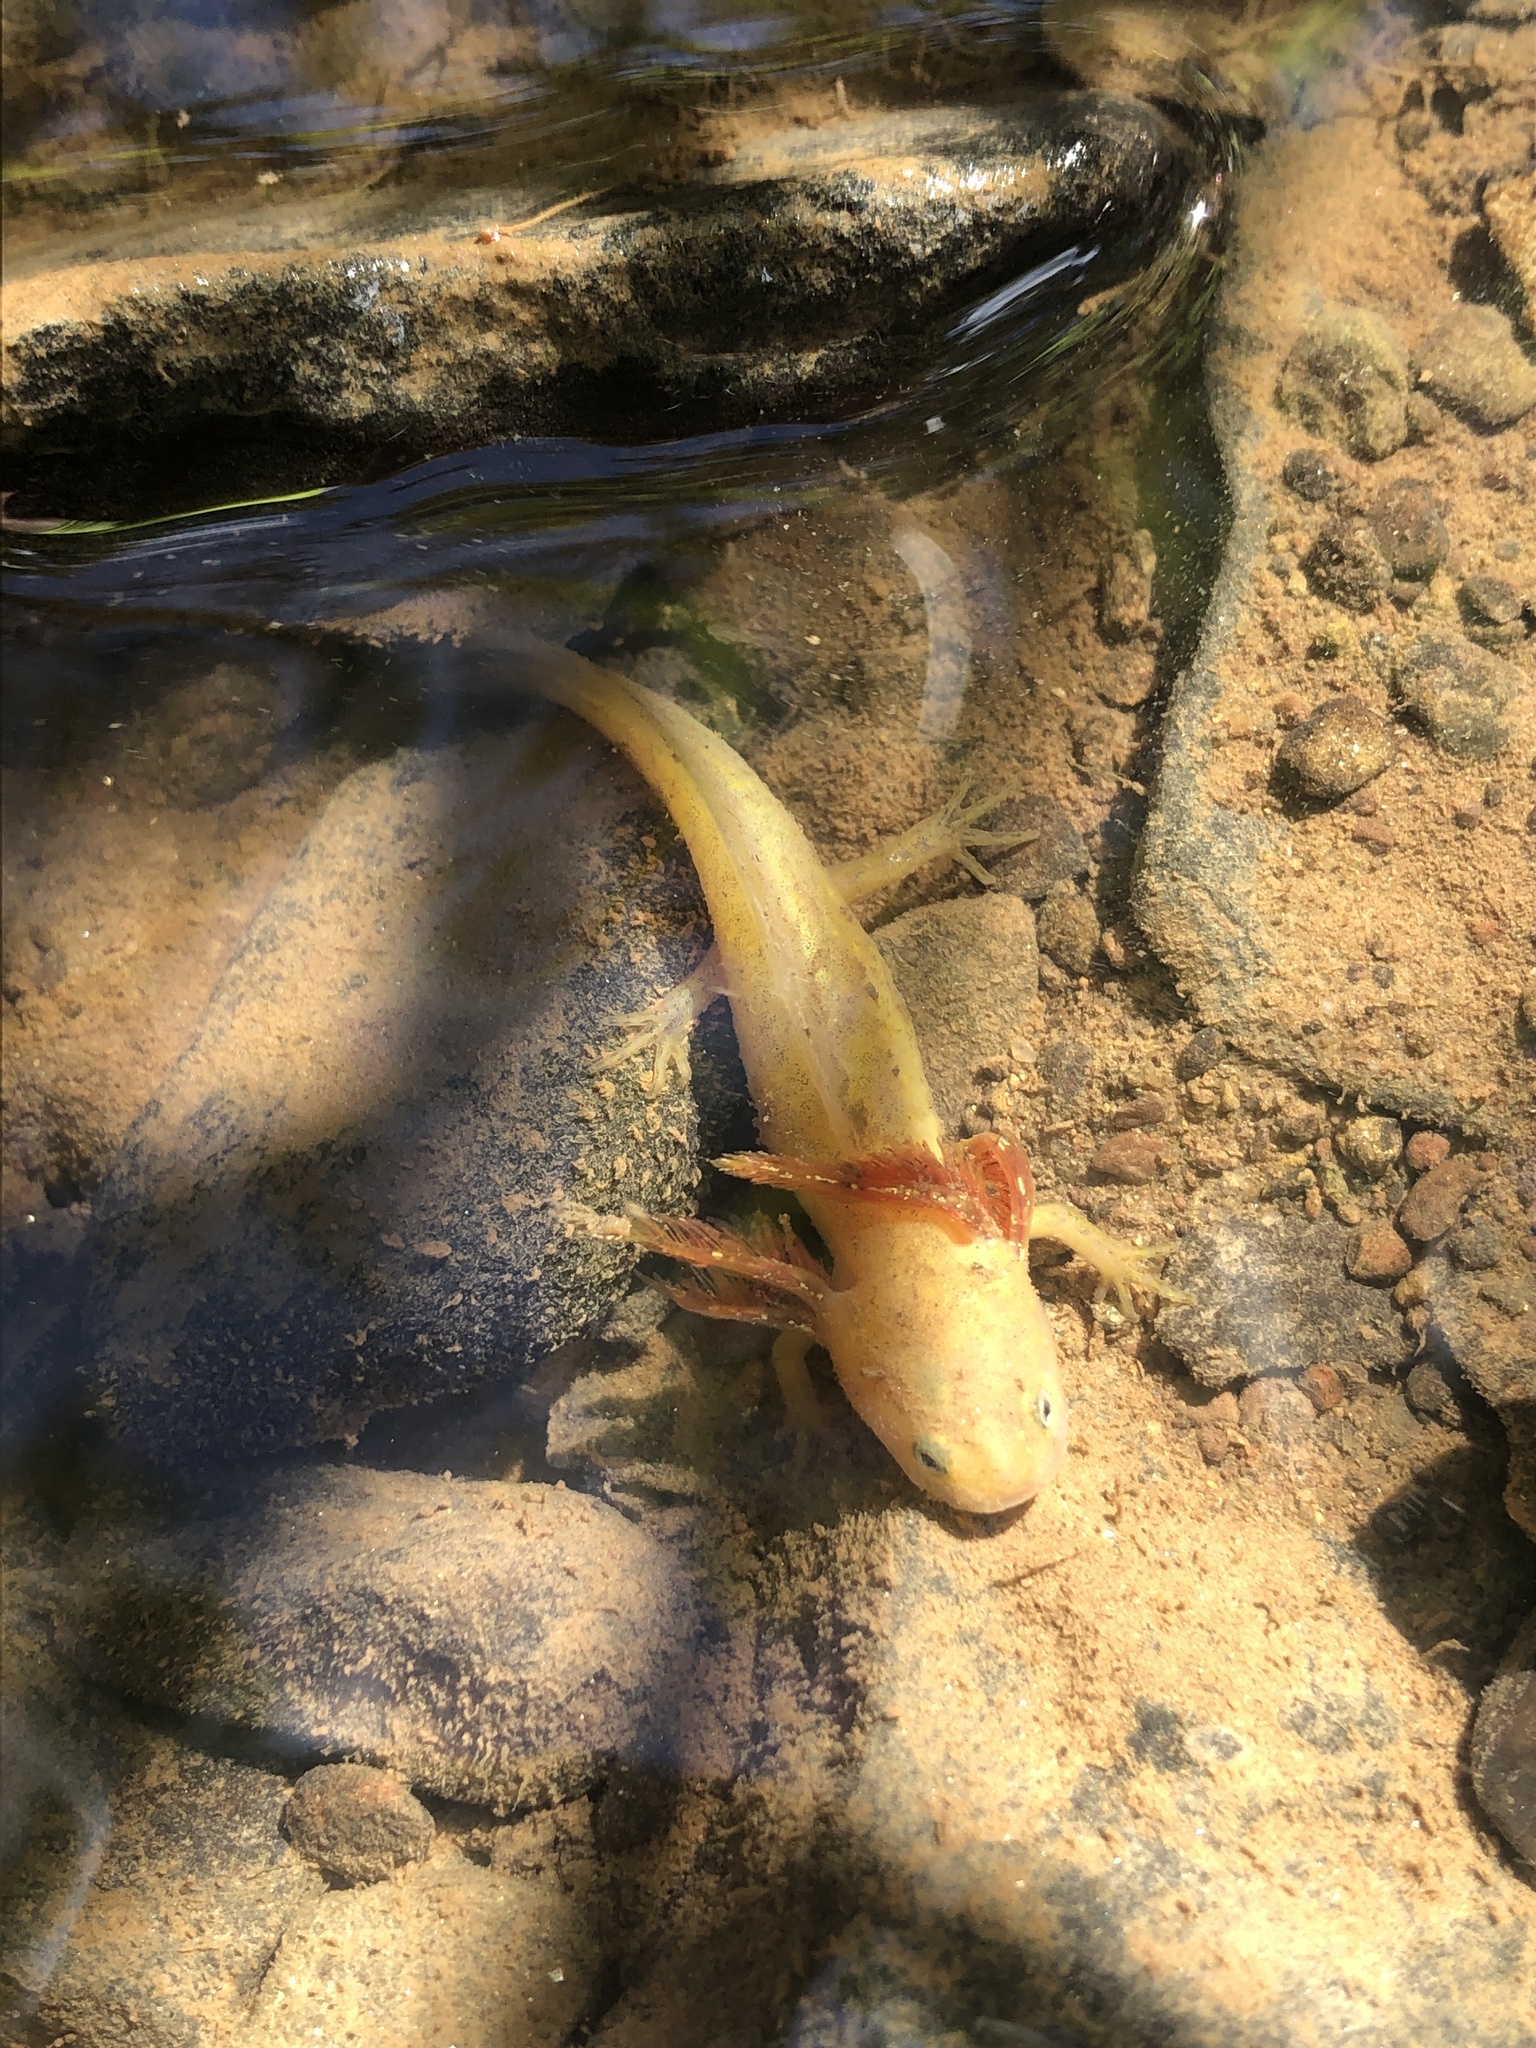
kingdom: Animalia
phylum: Chordata
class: Amphibia
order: Caudata
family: Ambystomatidae
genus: Ambystoma
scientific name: Ambystoma maculatum
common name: Spotted salamander
